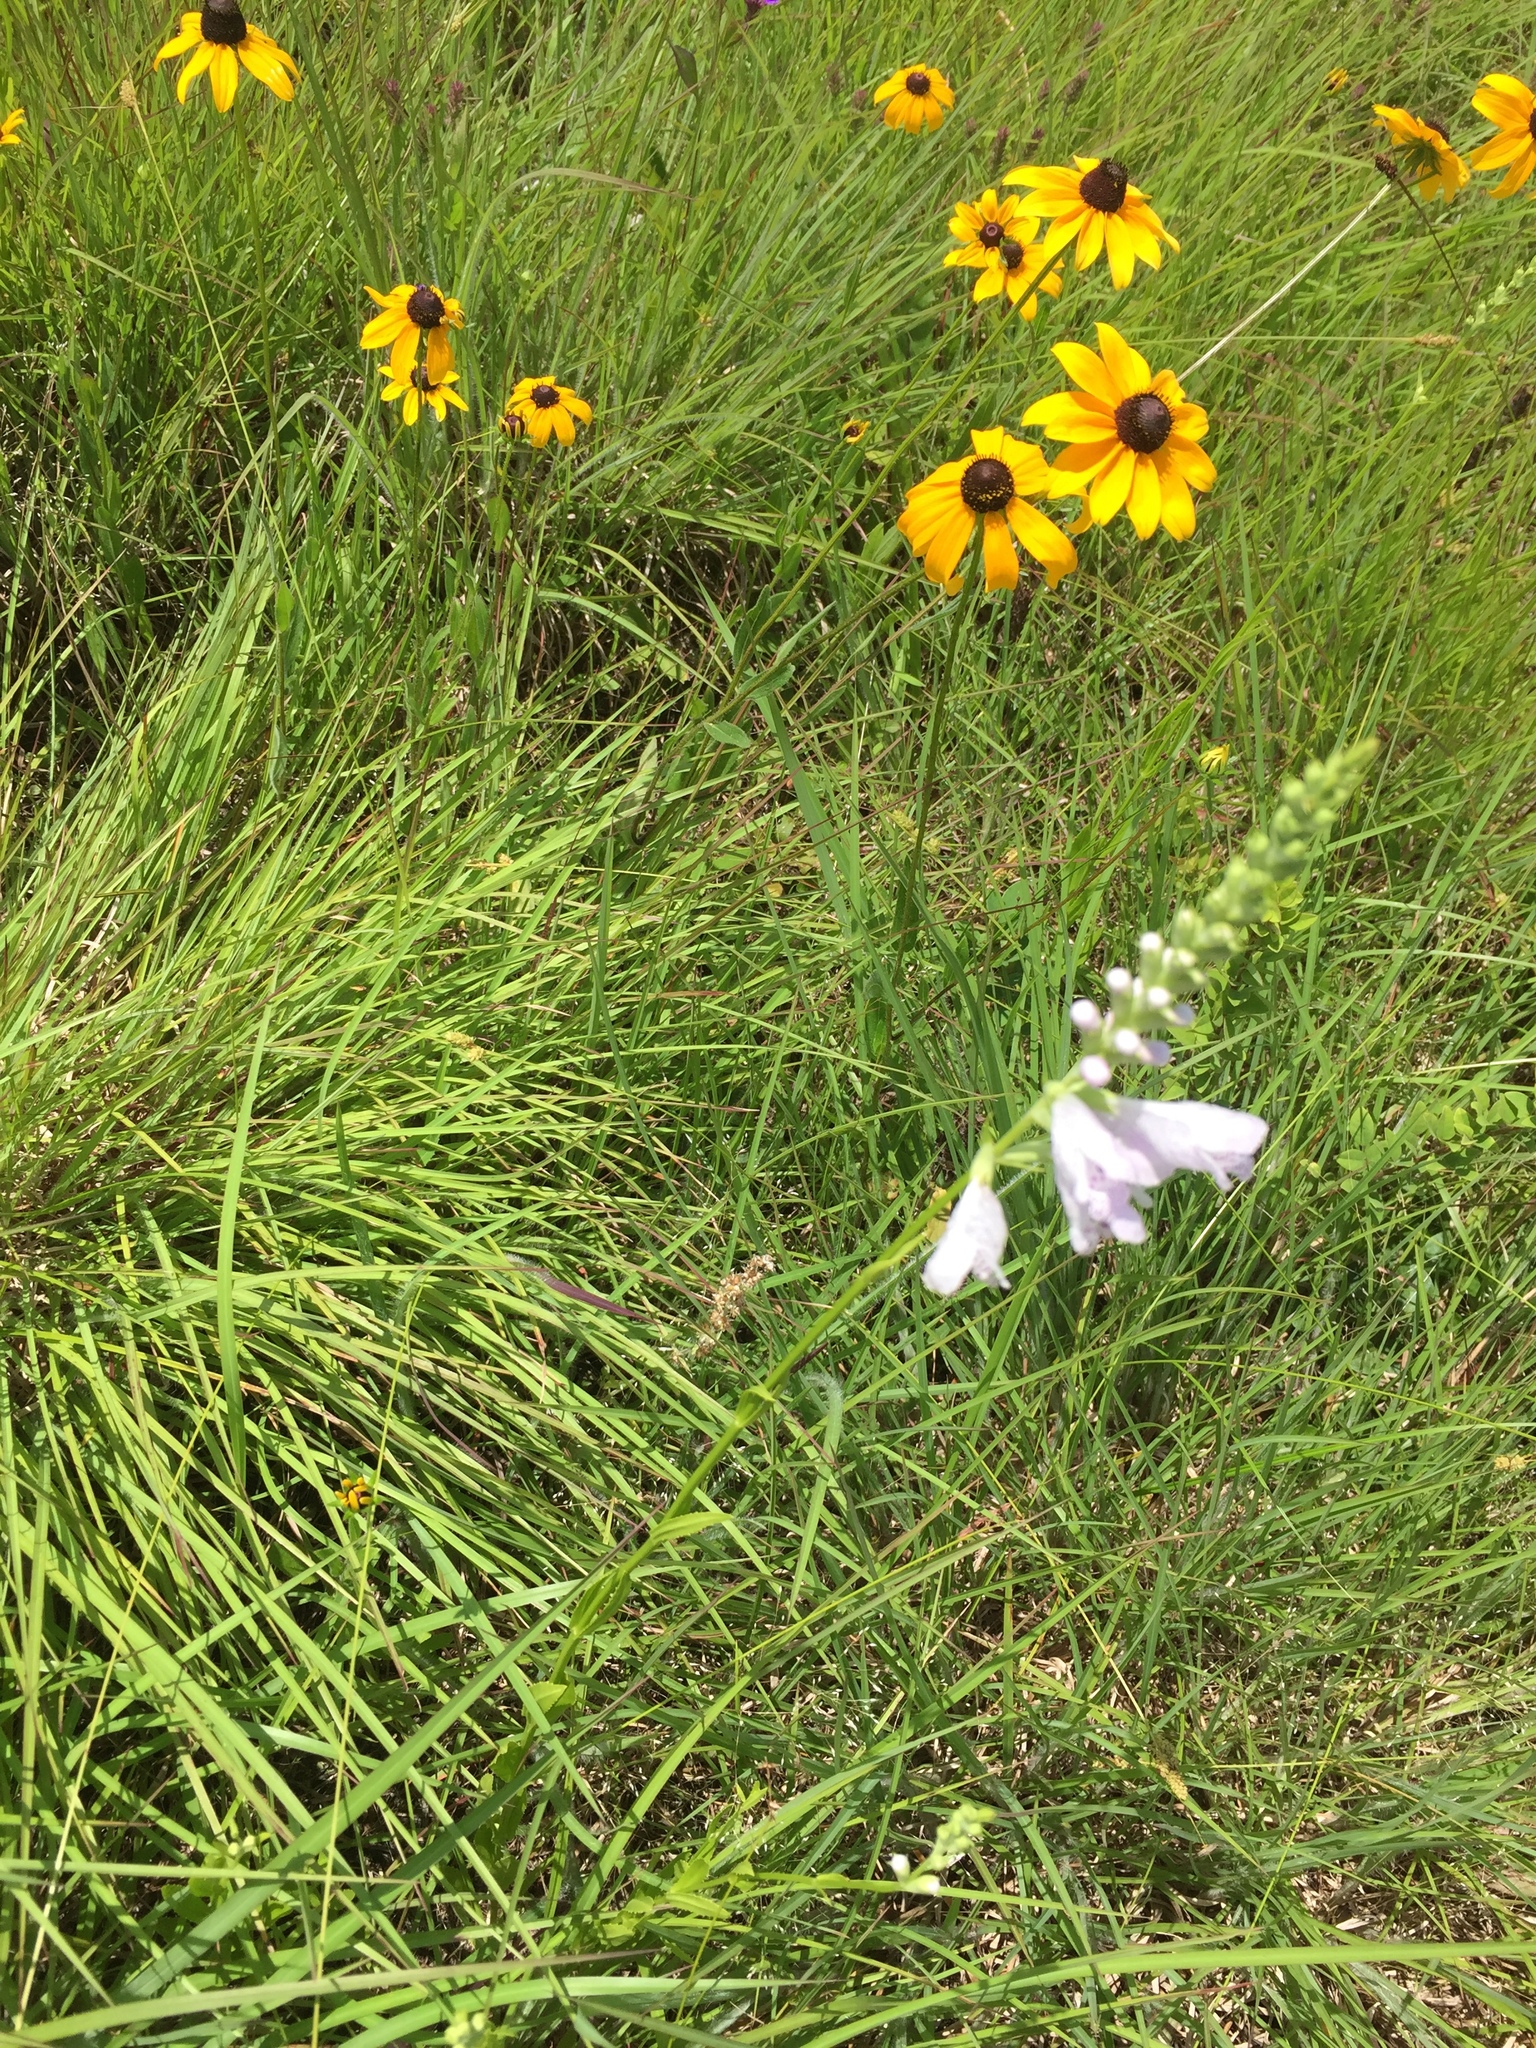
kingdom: Plantae
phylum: Tracheophyta
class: Magnoliopsida
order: Lamiales
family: Lamiaceae
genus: Physostegia
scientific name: Physostegia angustifolia
